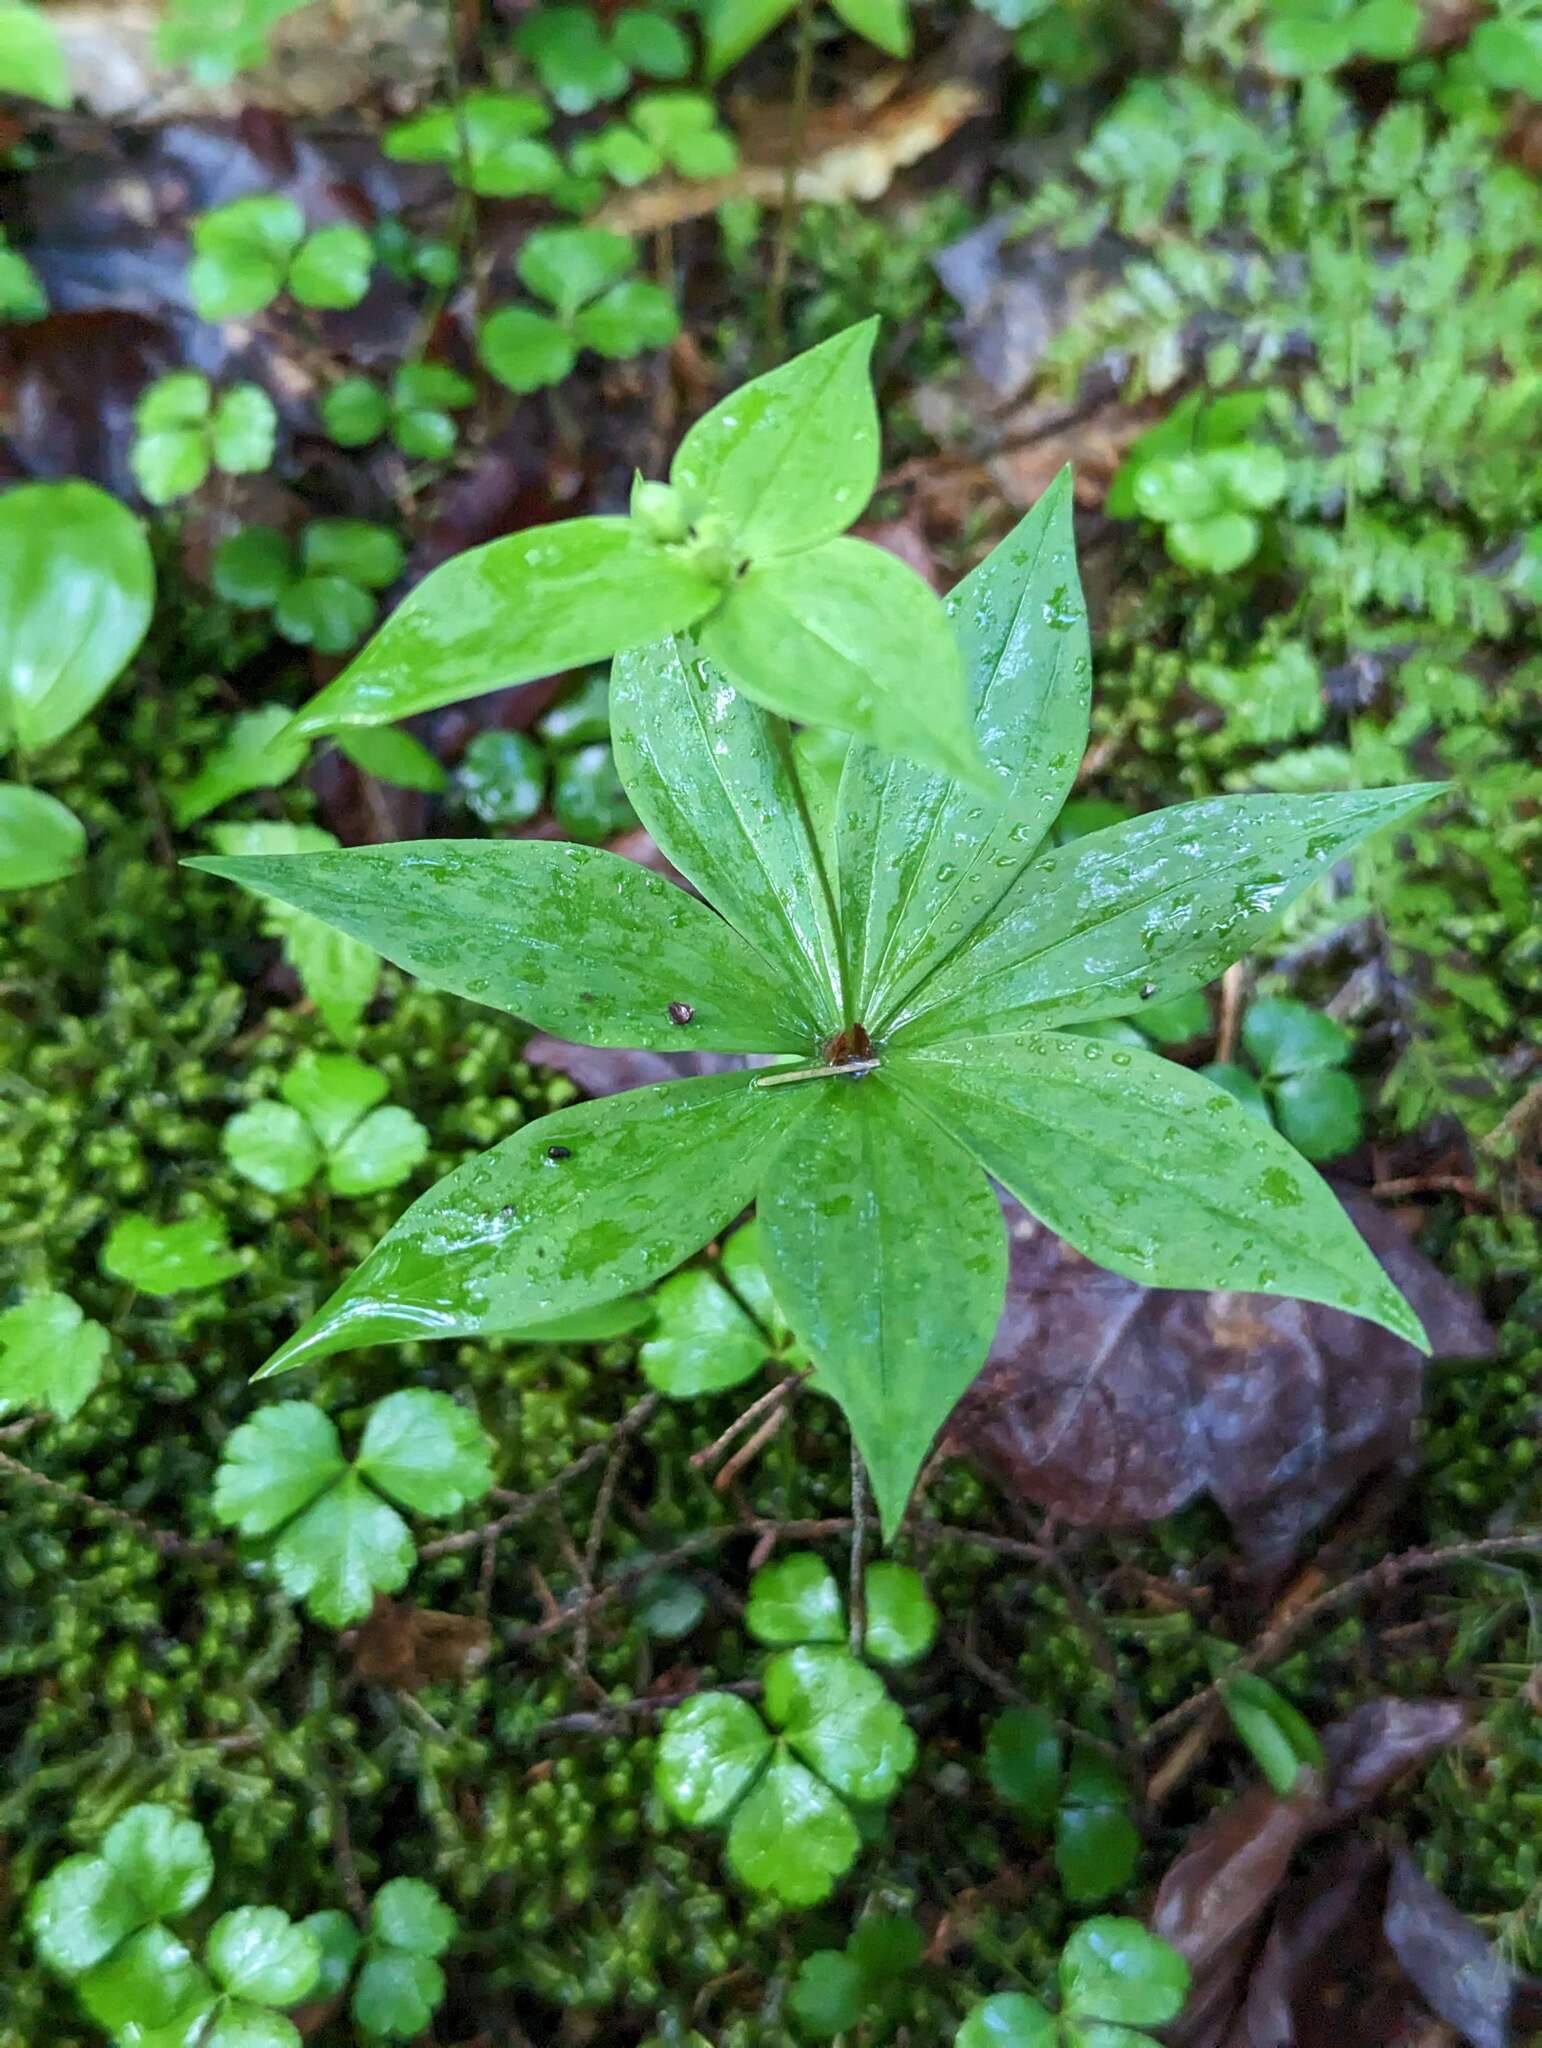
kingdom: Plantae
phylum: Tracheophyta
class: Liliopsida
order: Liliales
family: Liliaceae
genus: Medeola
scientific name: Medeola virginiana
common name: Indian cucumber-root
